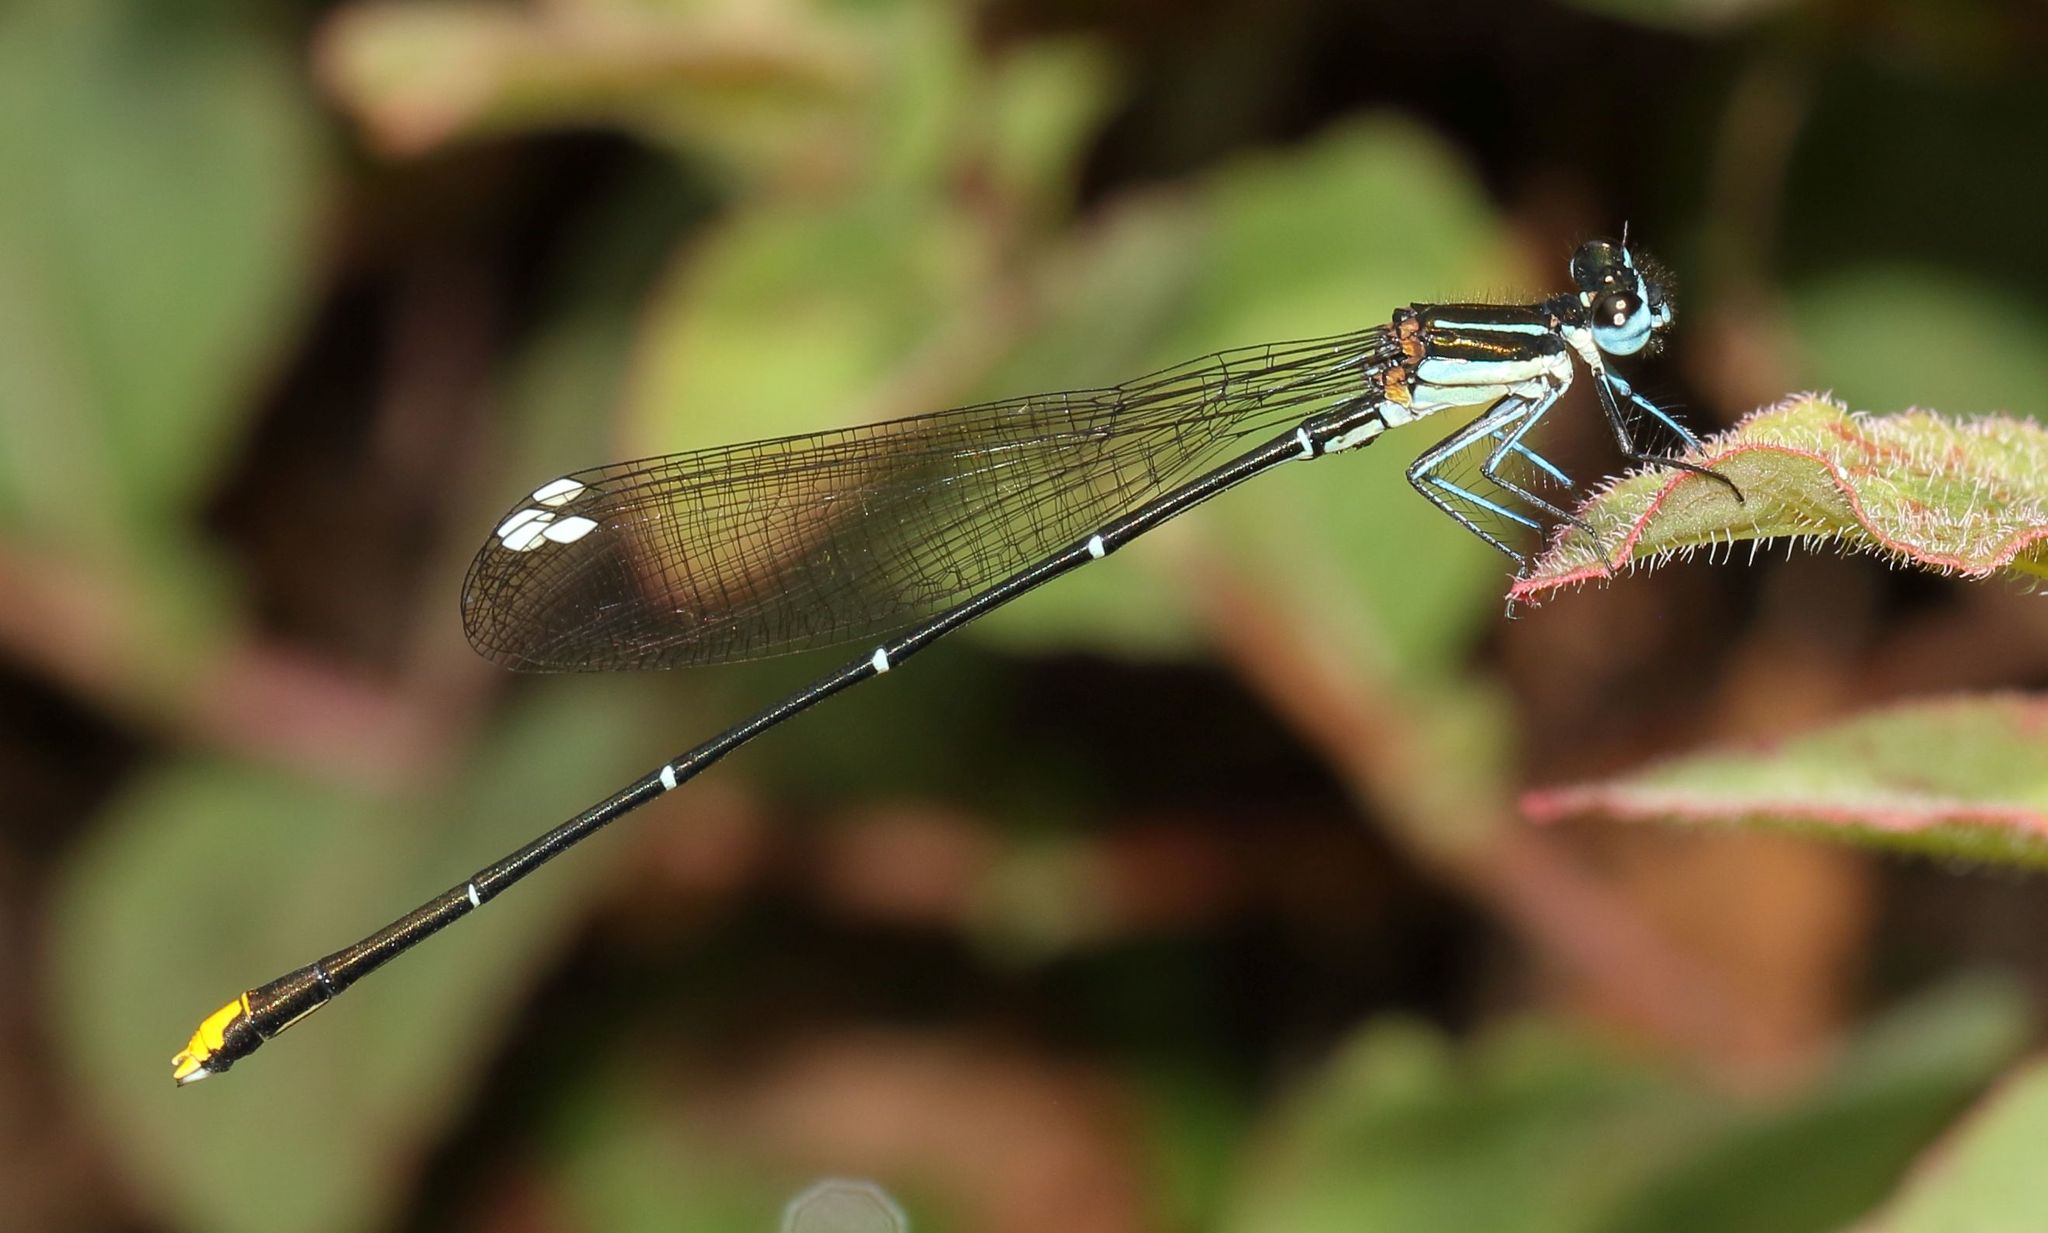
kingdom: Animalia
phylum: Arthropoda
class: Insecta
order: Odonata
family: Platycnemididae
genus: Allocnemis
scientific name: Allocnemis leucosticta
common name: Goldtail
